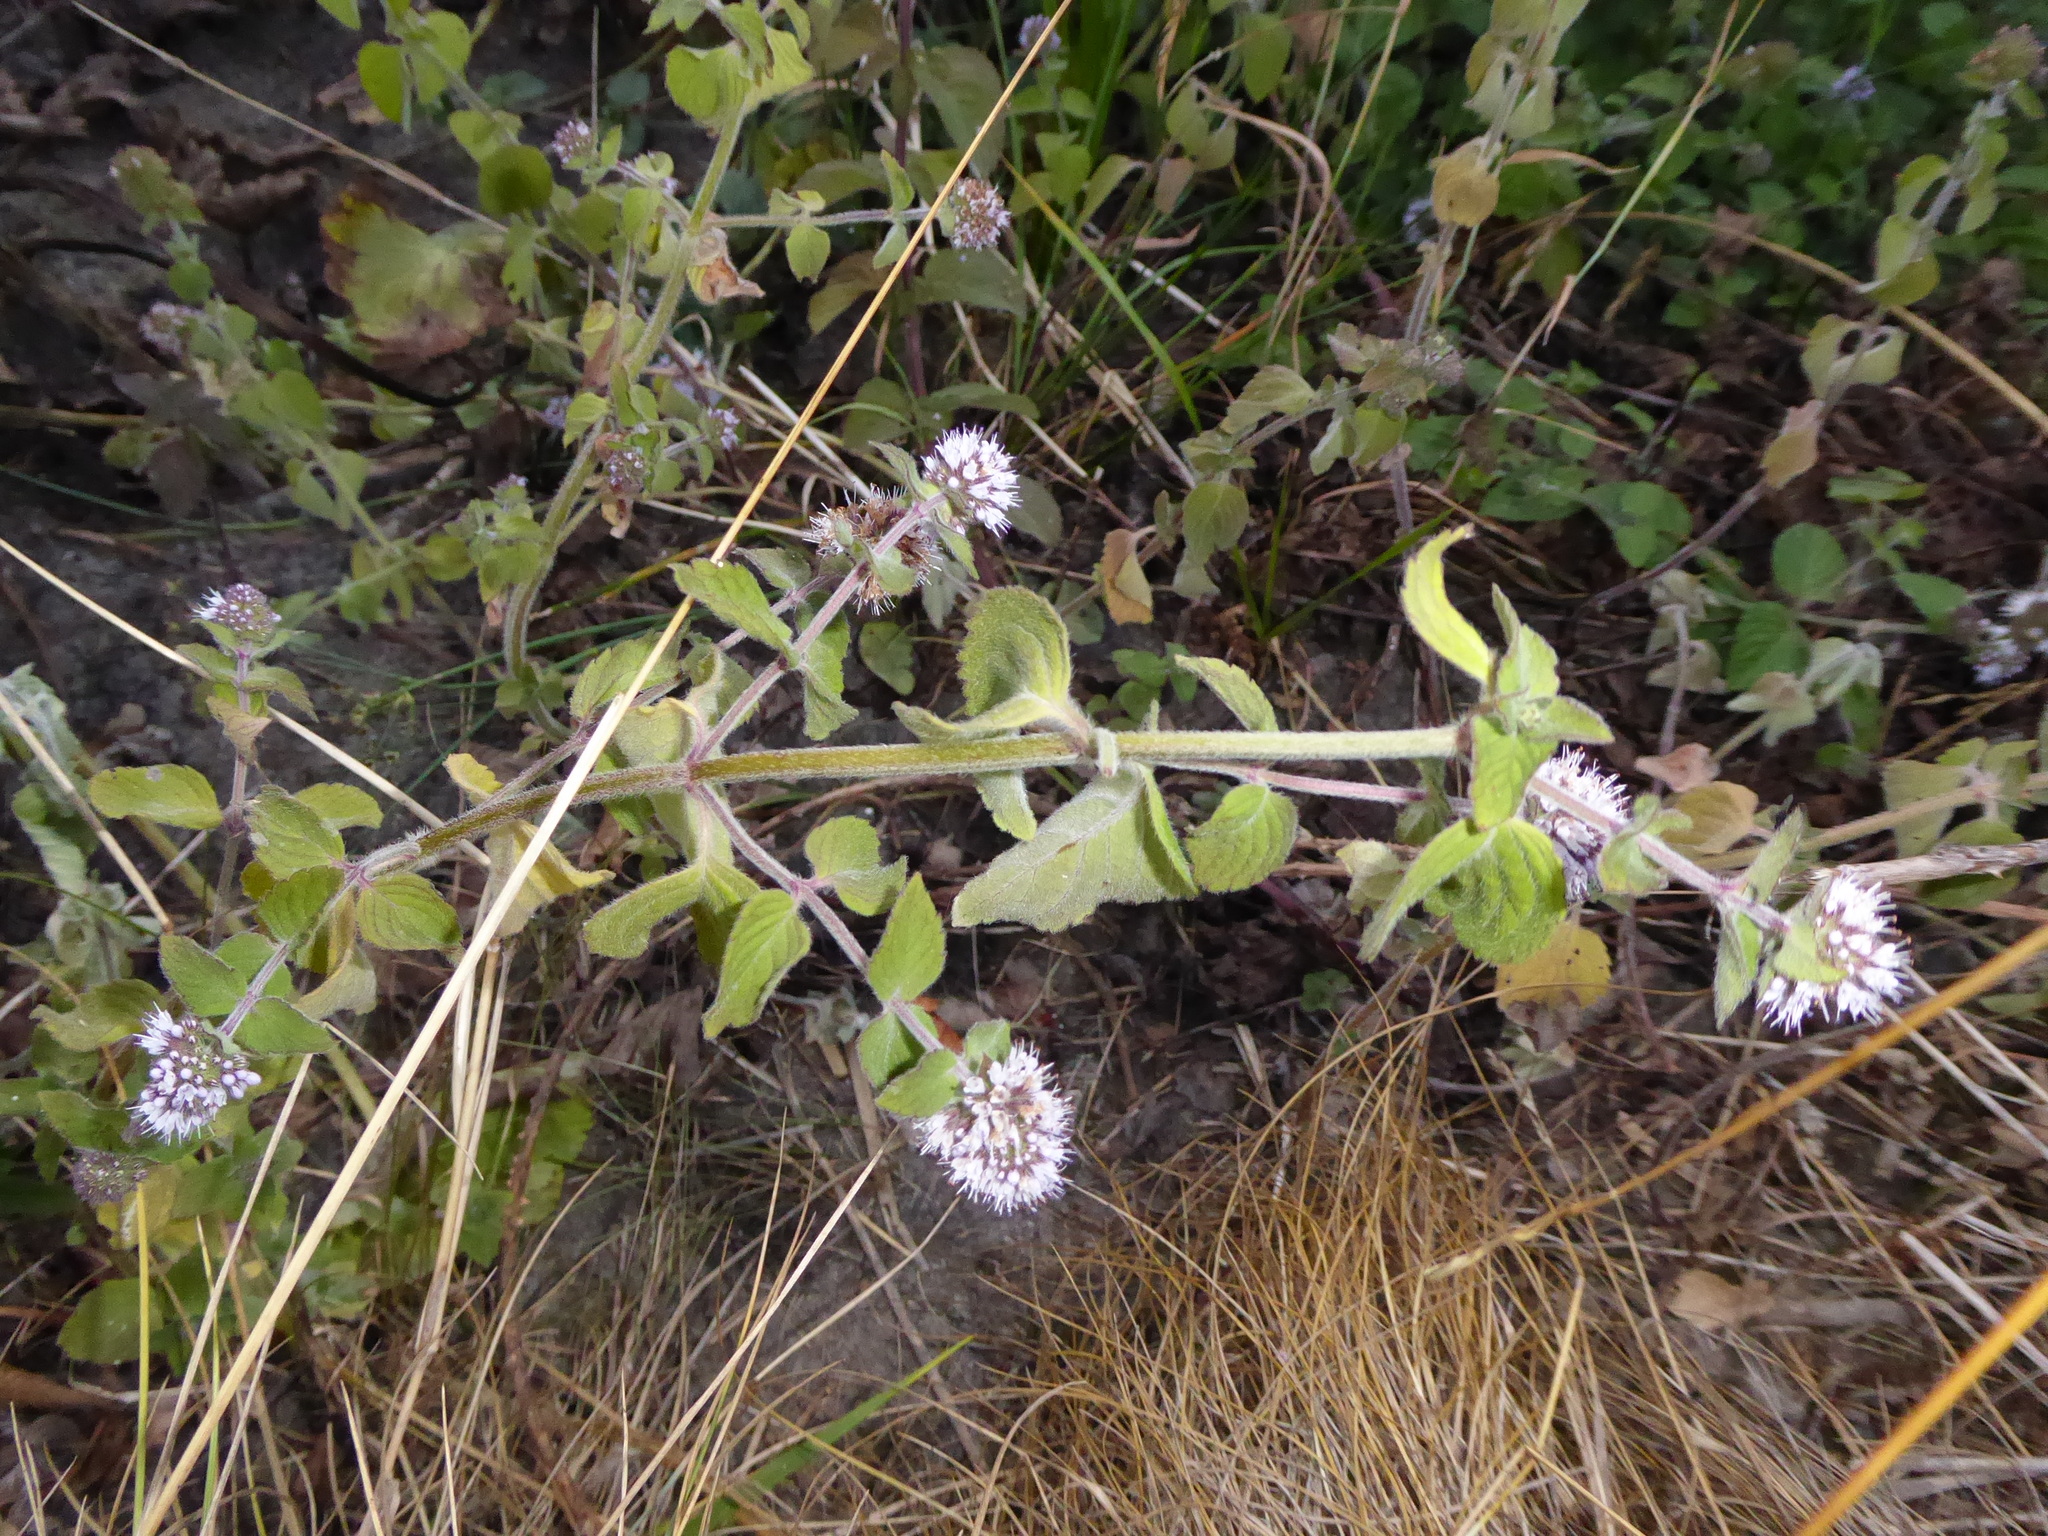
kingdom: Plantae
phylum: Tracheophyta
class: Magnoliopsida
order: Lamiales
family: Lamiaceae
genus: Mentha
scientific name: Mentha aquatica
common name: Water mint
